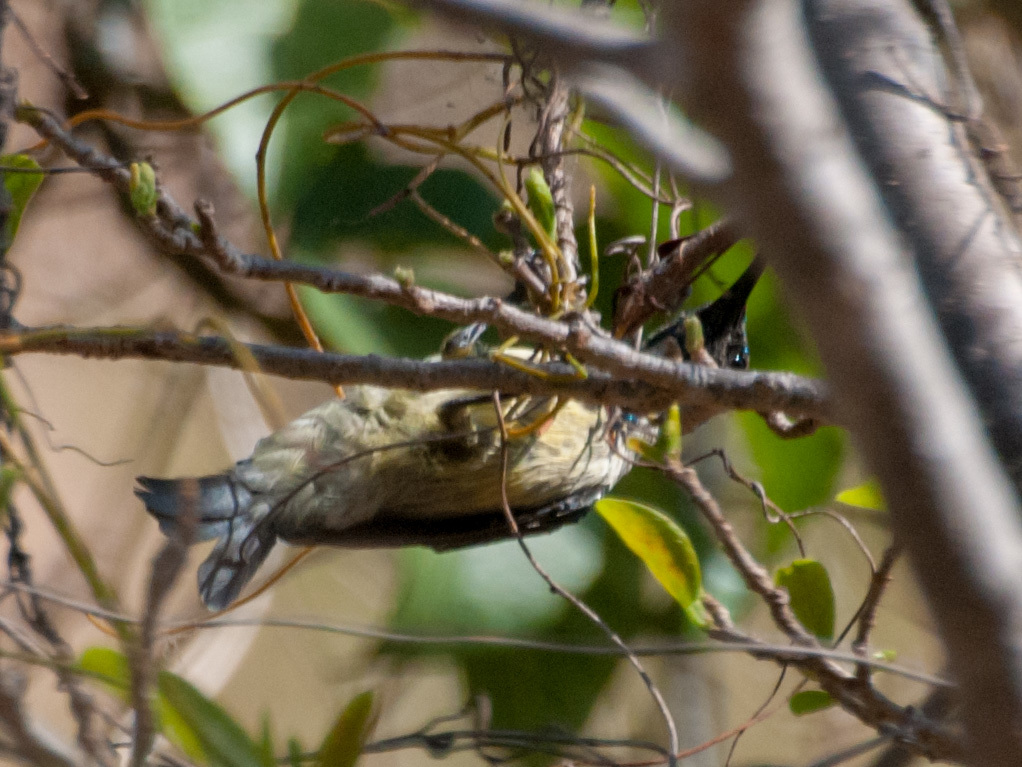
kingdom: Animalia
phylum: Chordata
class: Aves
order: Passeriformes
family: Nectariniidae
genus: Cinnyris
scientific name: Cinnyris notatus
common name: Malagasy green sunbird
